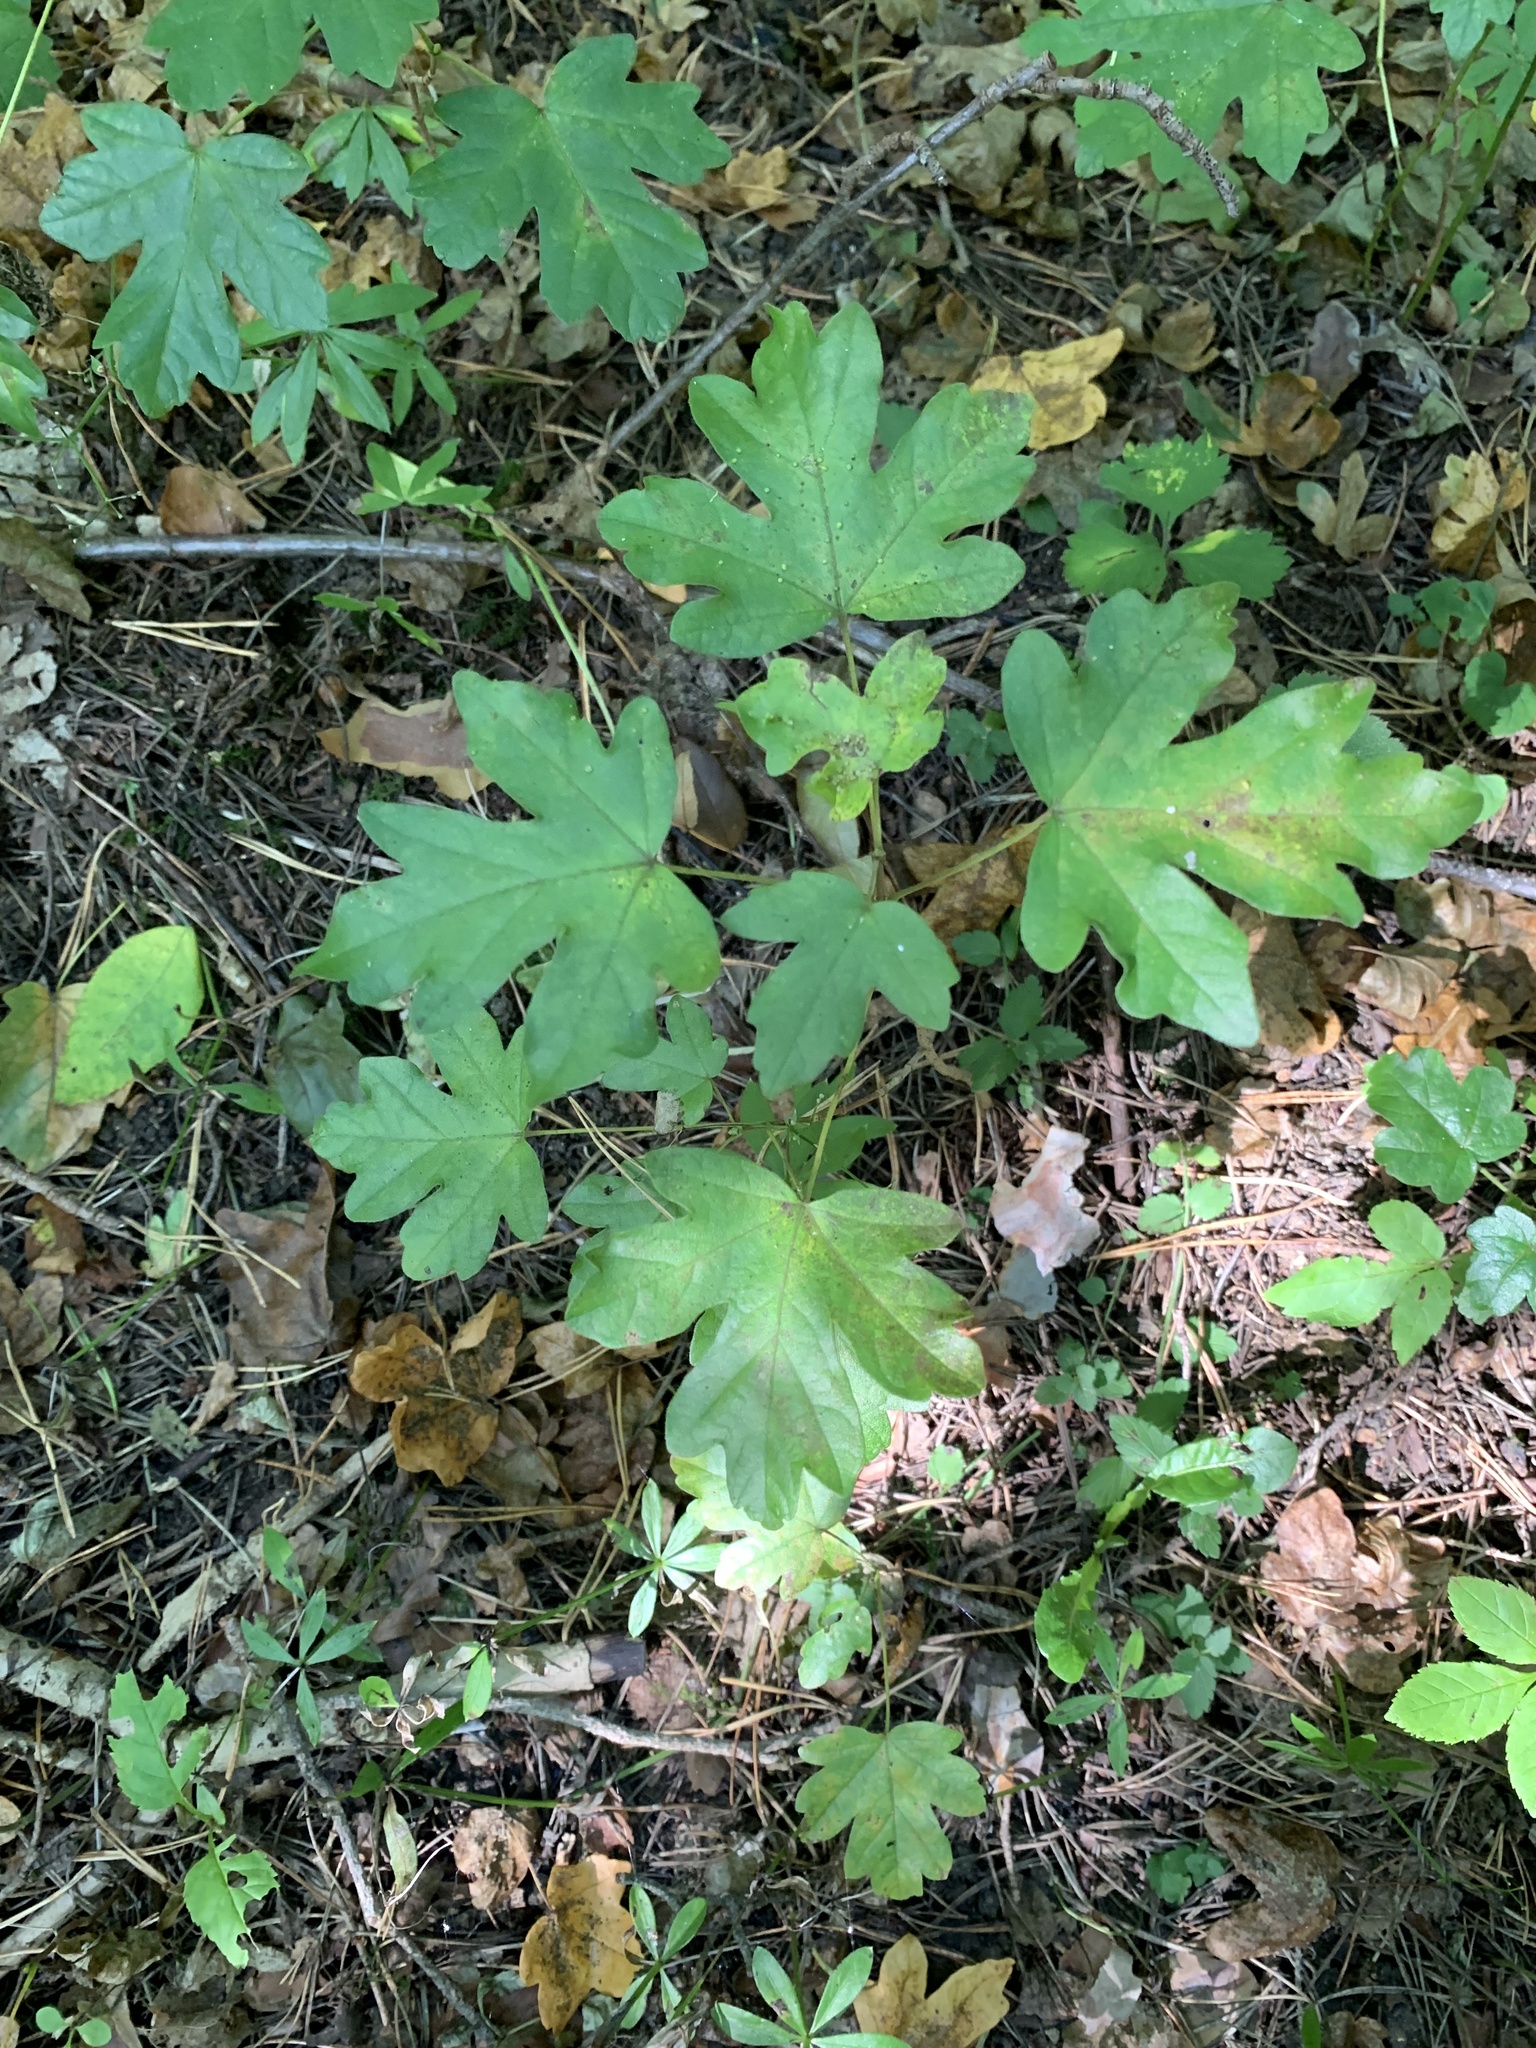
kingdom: Plantae
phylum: Tracheophyta
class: Magnoliopsida
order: Sapindales
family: Sapindaceae
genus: Acer
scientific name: Acer campestre
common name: Field maple
